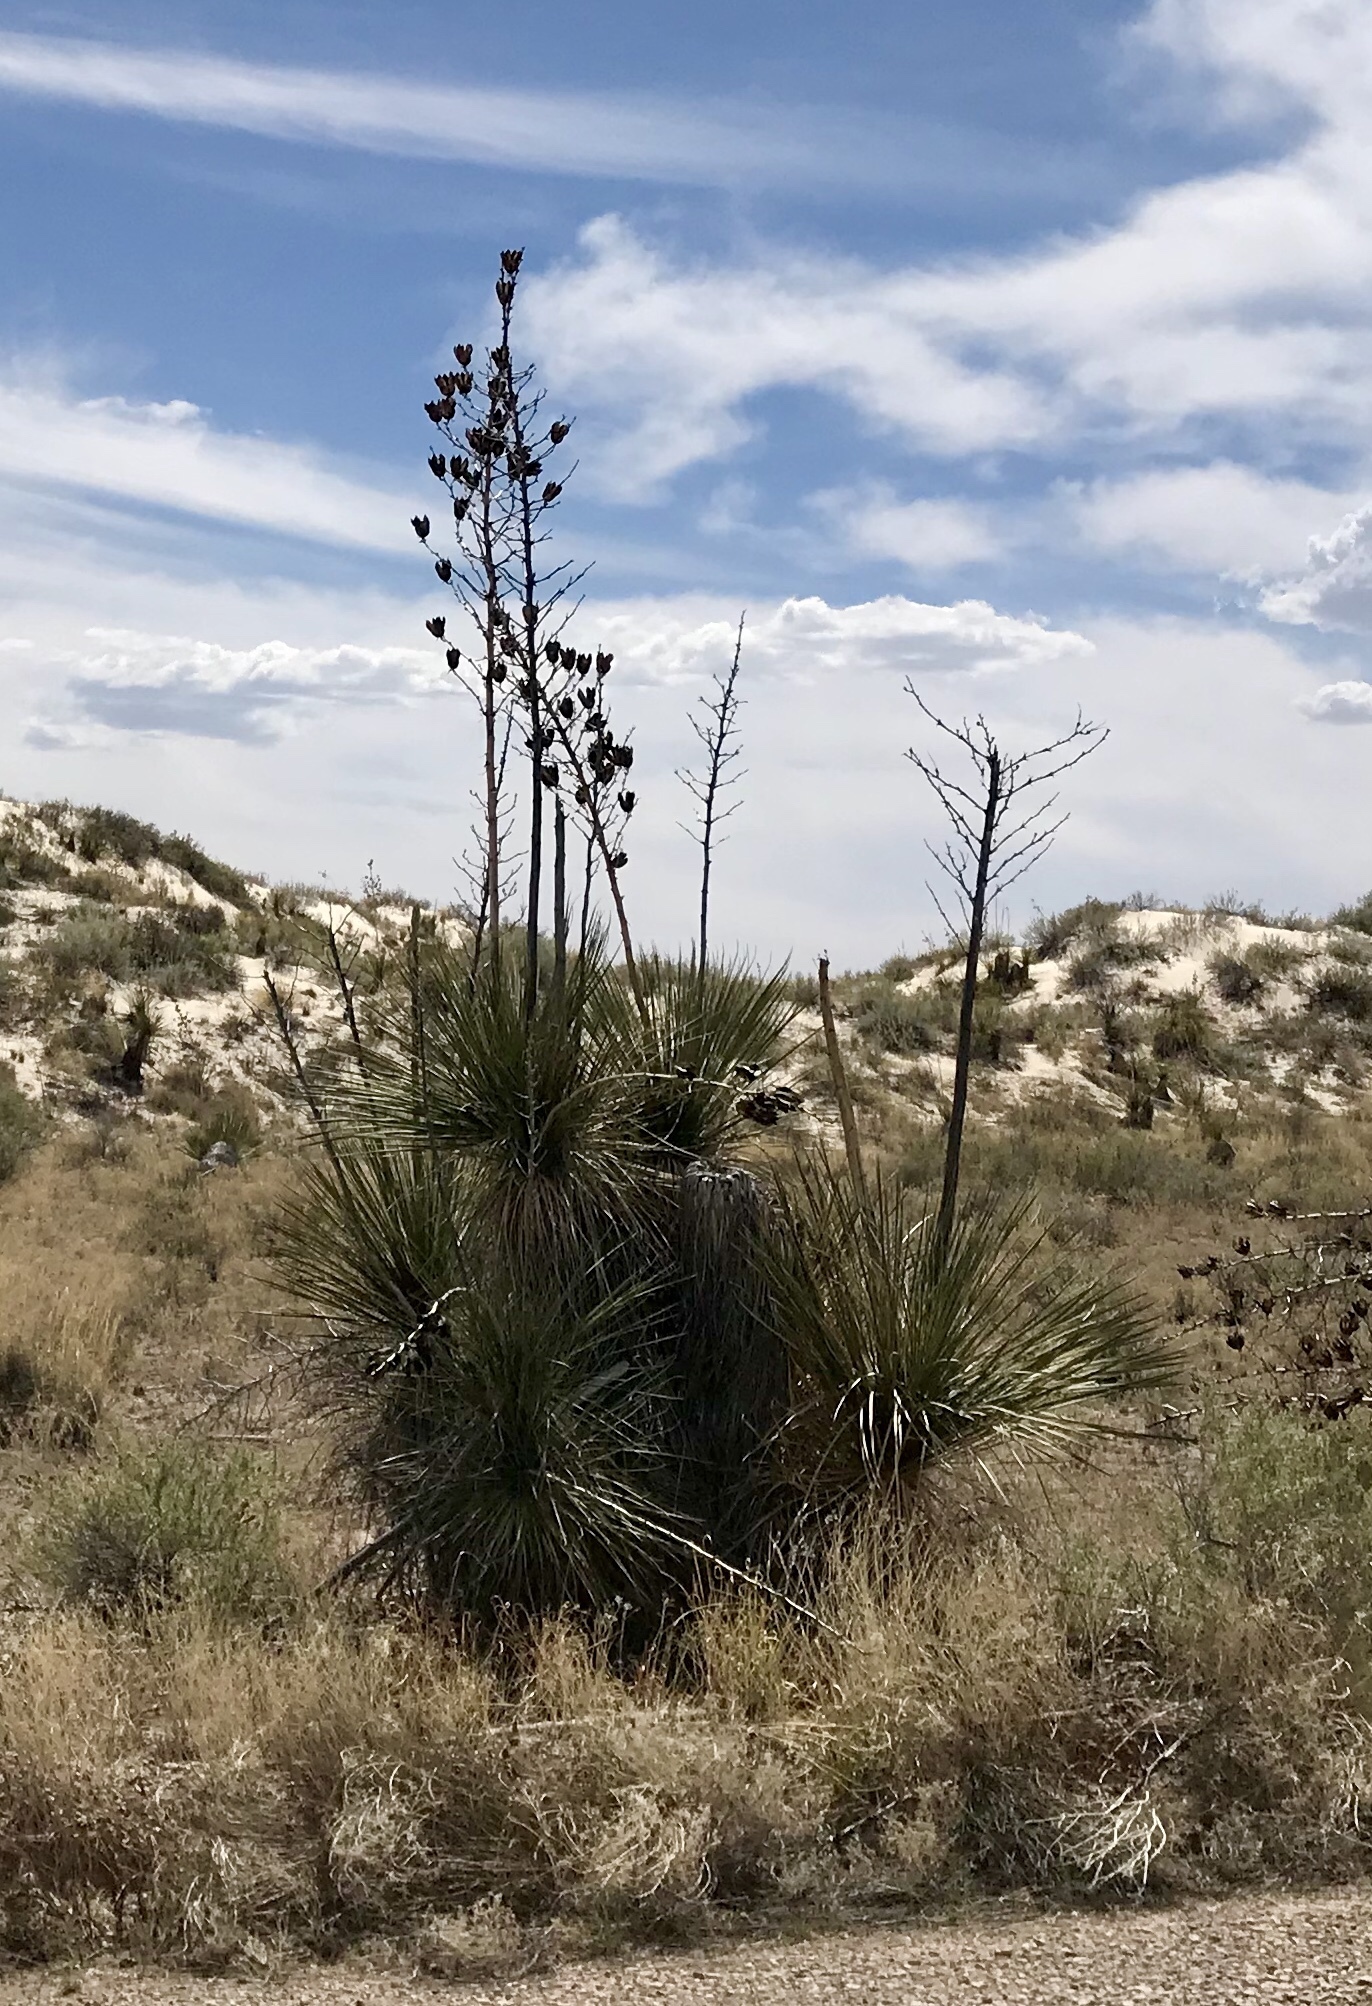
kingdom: Plantae
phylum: Tracheophyta
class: Liliopsida
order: Asparagales
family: Asparagaceae
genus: Yucca
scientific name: Yucca elata
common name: Palmella
